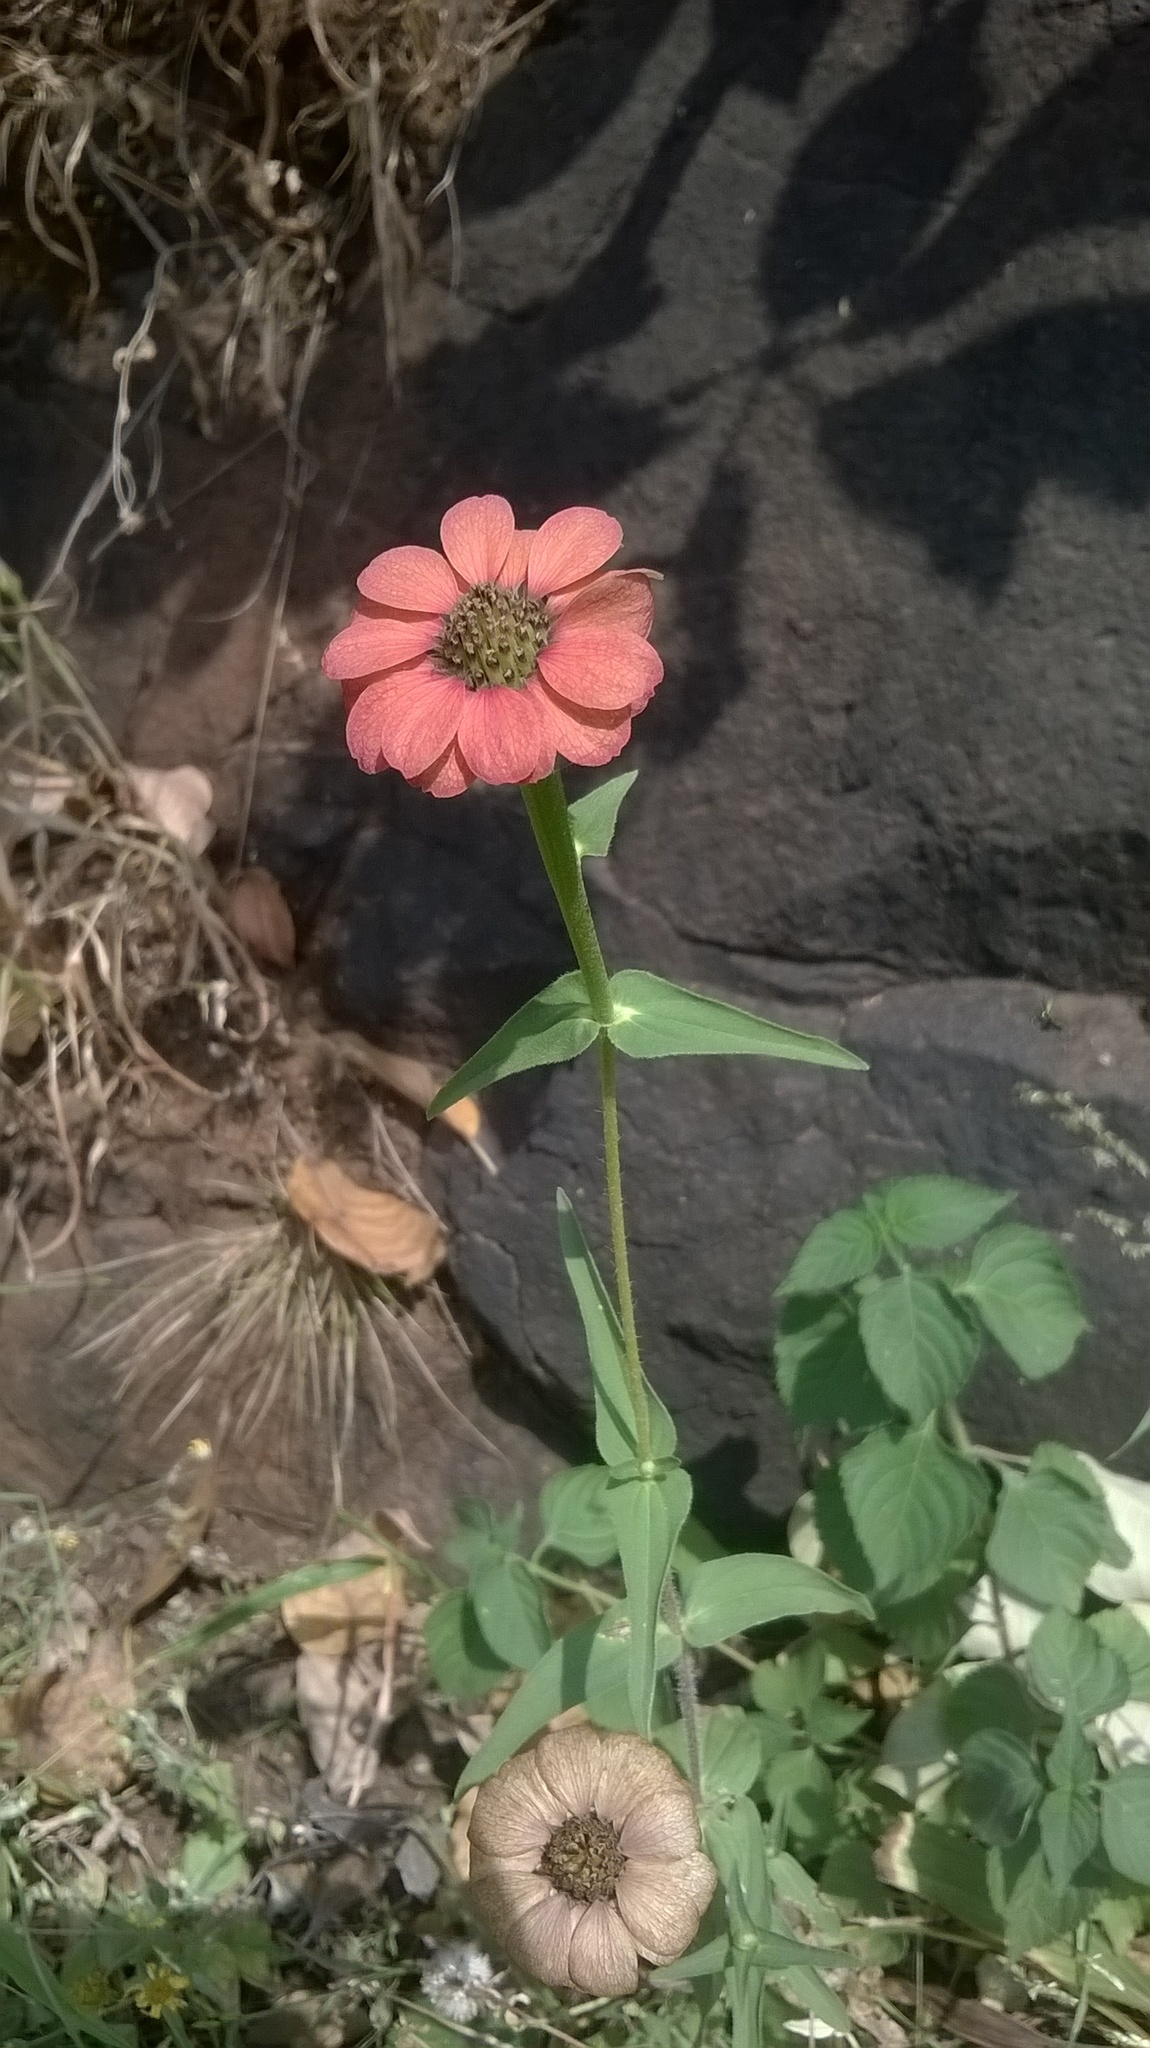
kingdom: Plantae
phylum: Tracheophyta
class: Magnoliopsida
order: Asterales
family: Asteraceae
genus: Zinnia
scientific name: Zinnia peruviana
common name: Peruvian zinnia
